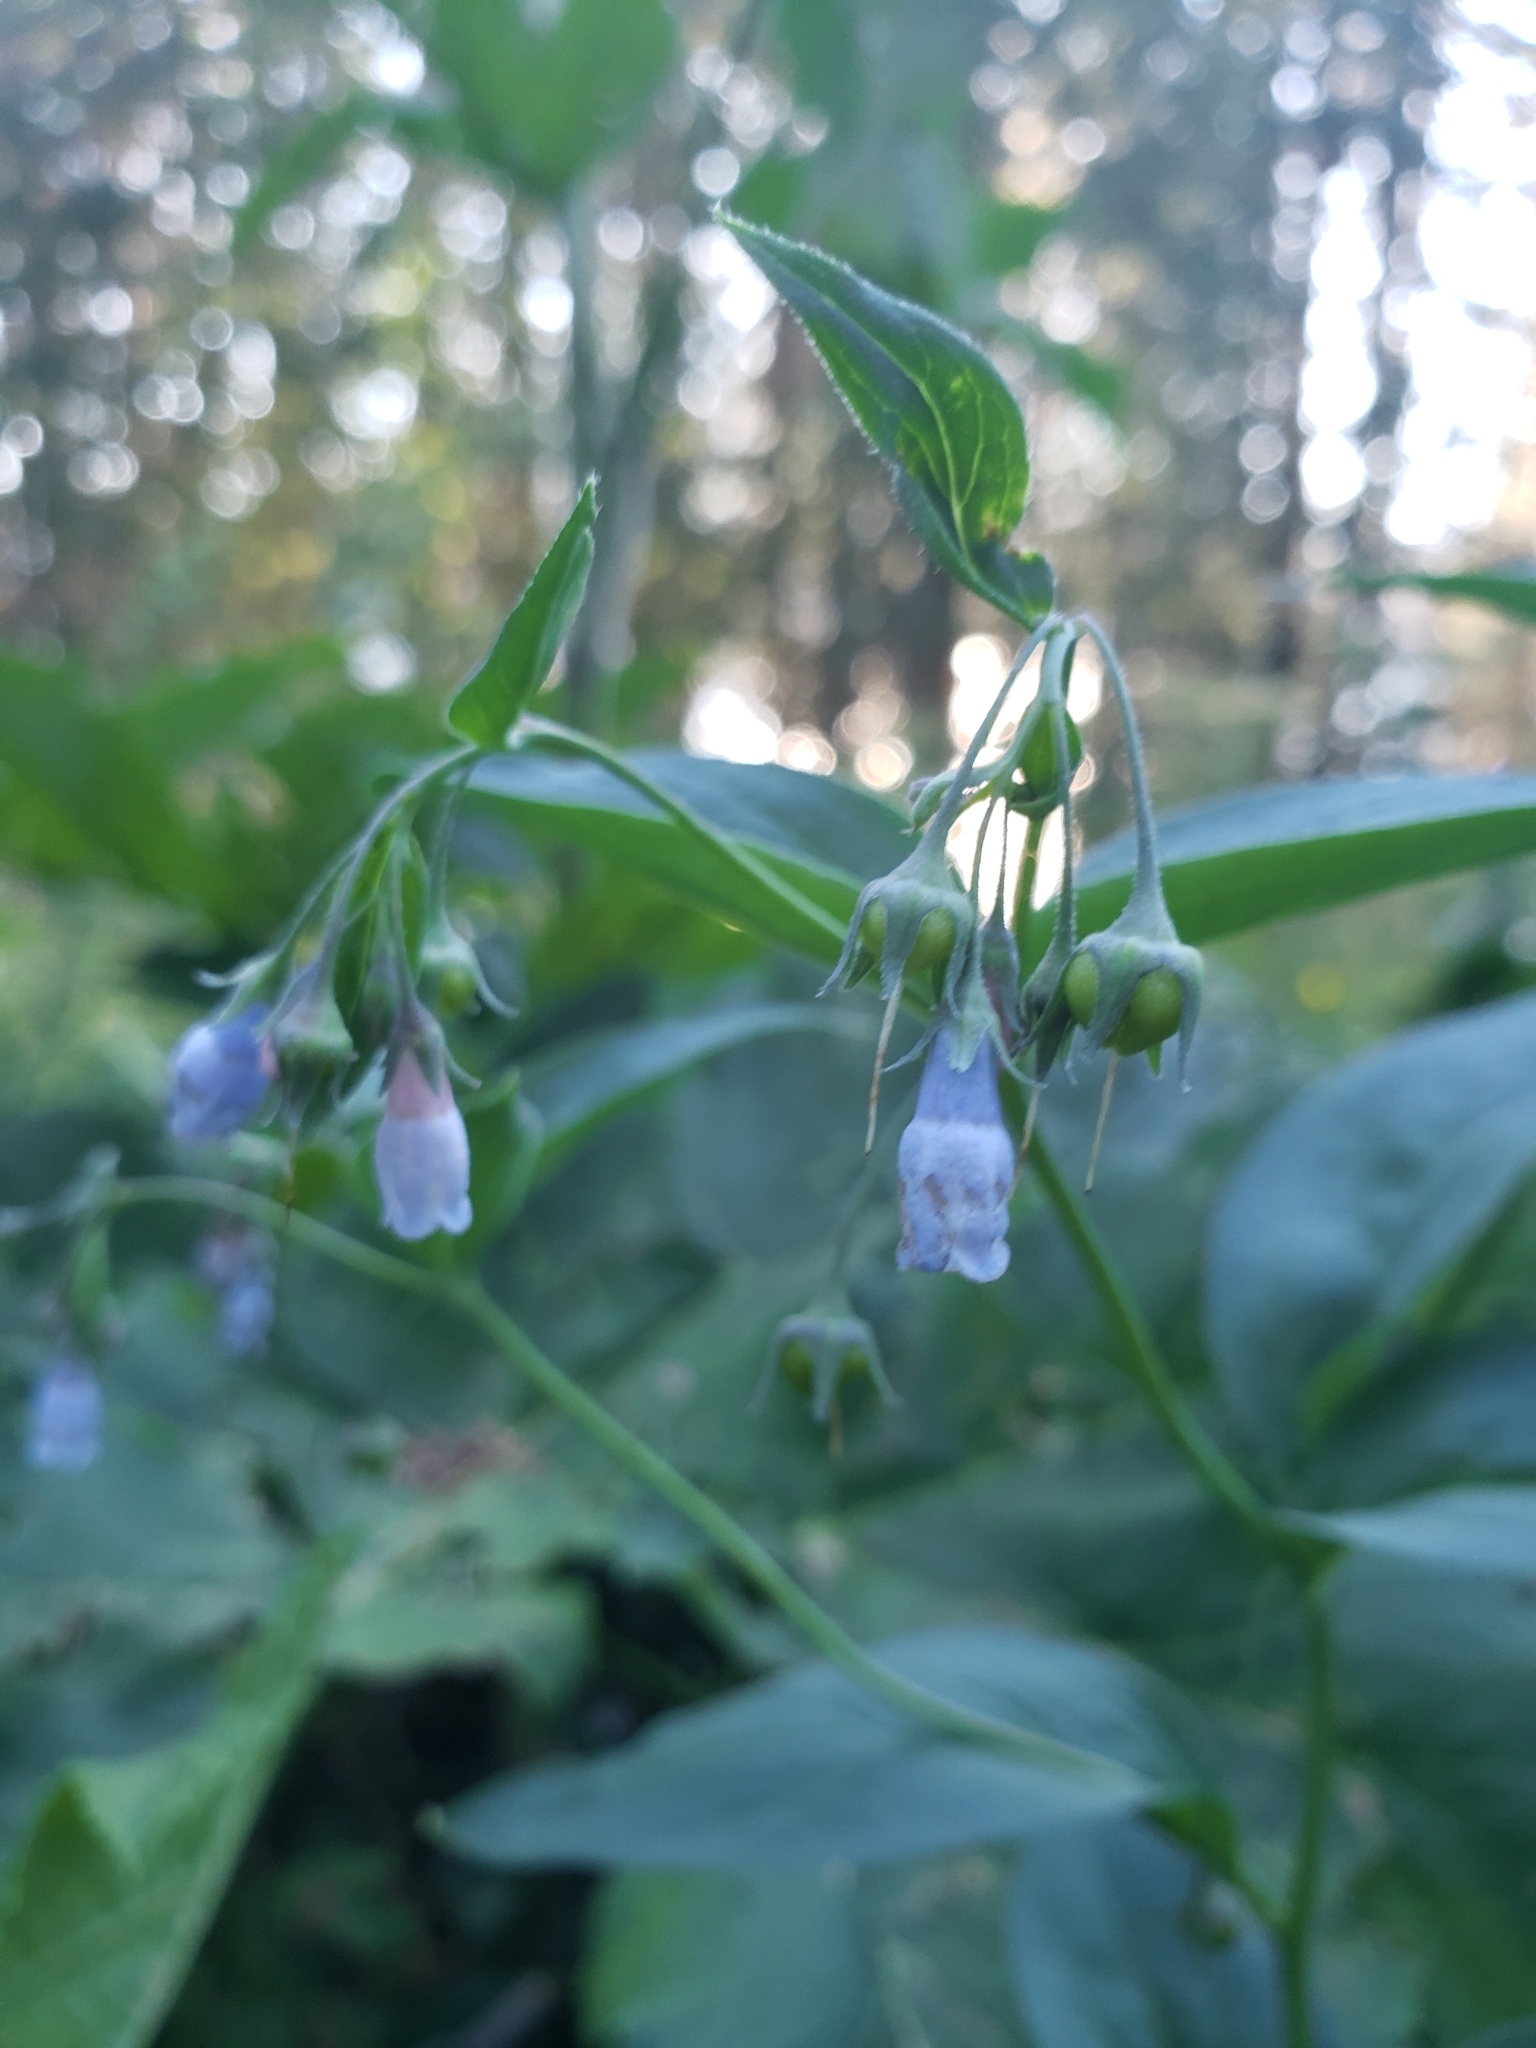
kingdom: Plantae
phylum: Tracheophyta
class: Magnoliopsida
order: Boraginales
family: Boraginaceae
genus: Mertensia
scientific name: Mertensia paniculata
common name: Panicled bluebells
